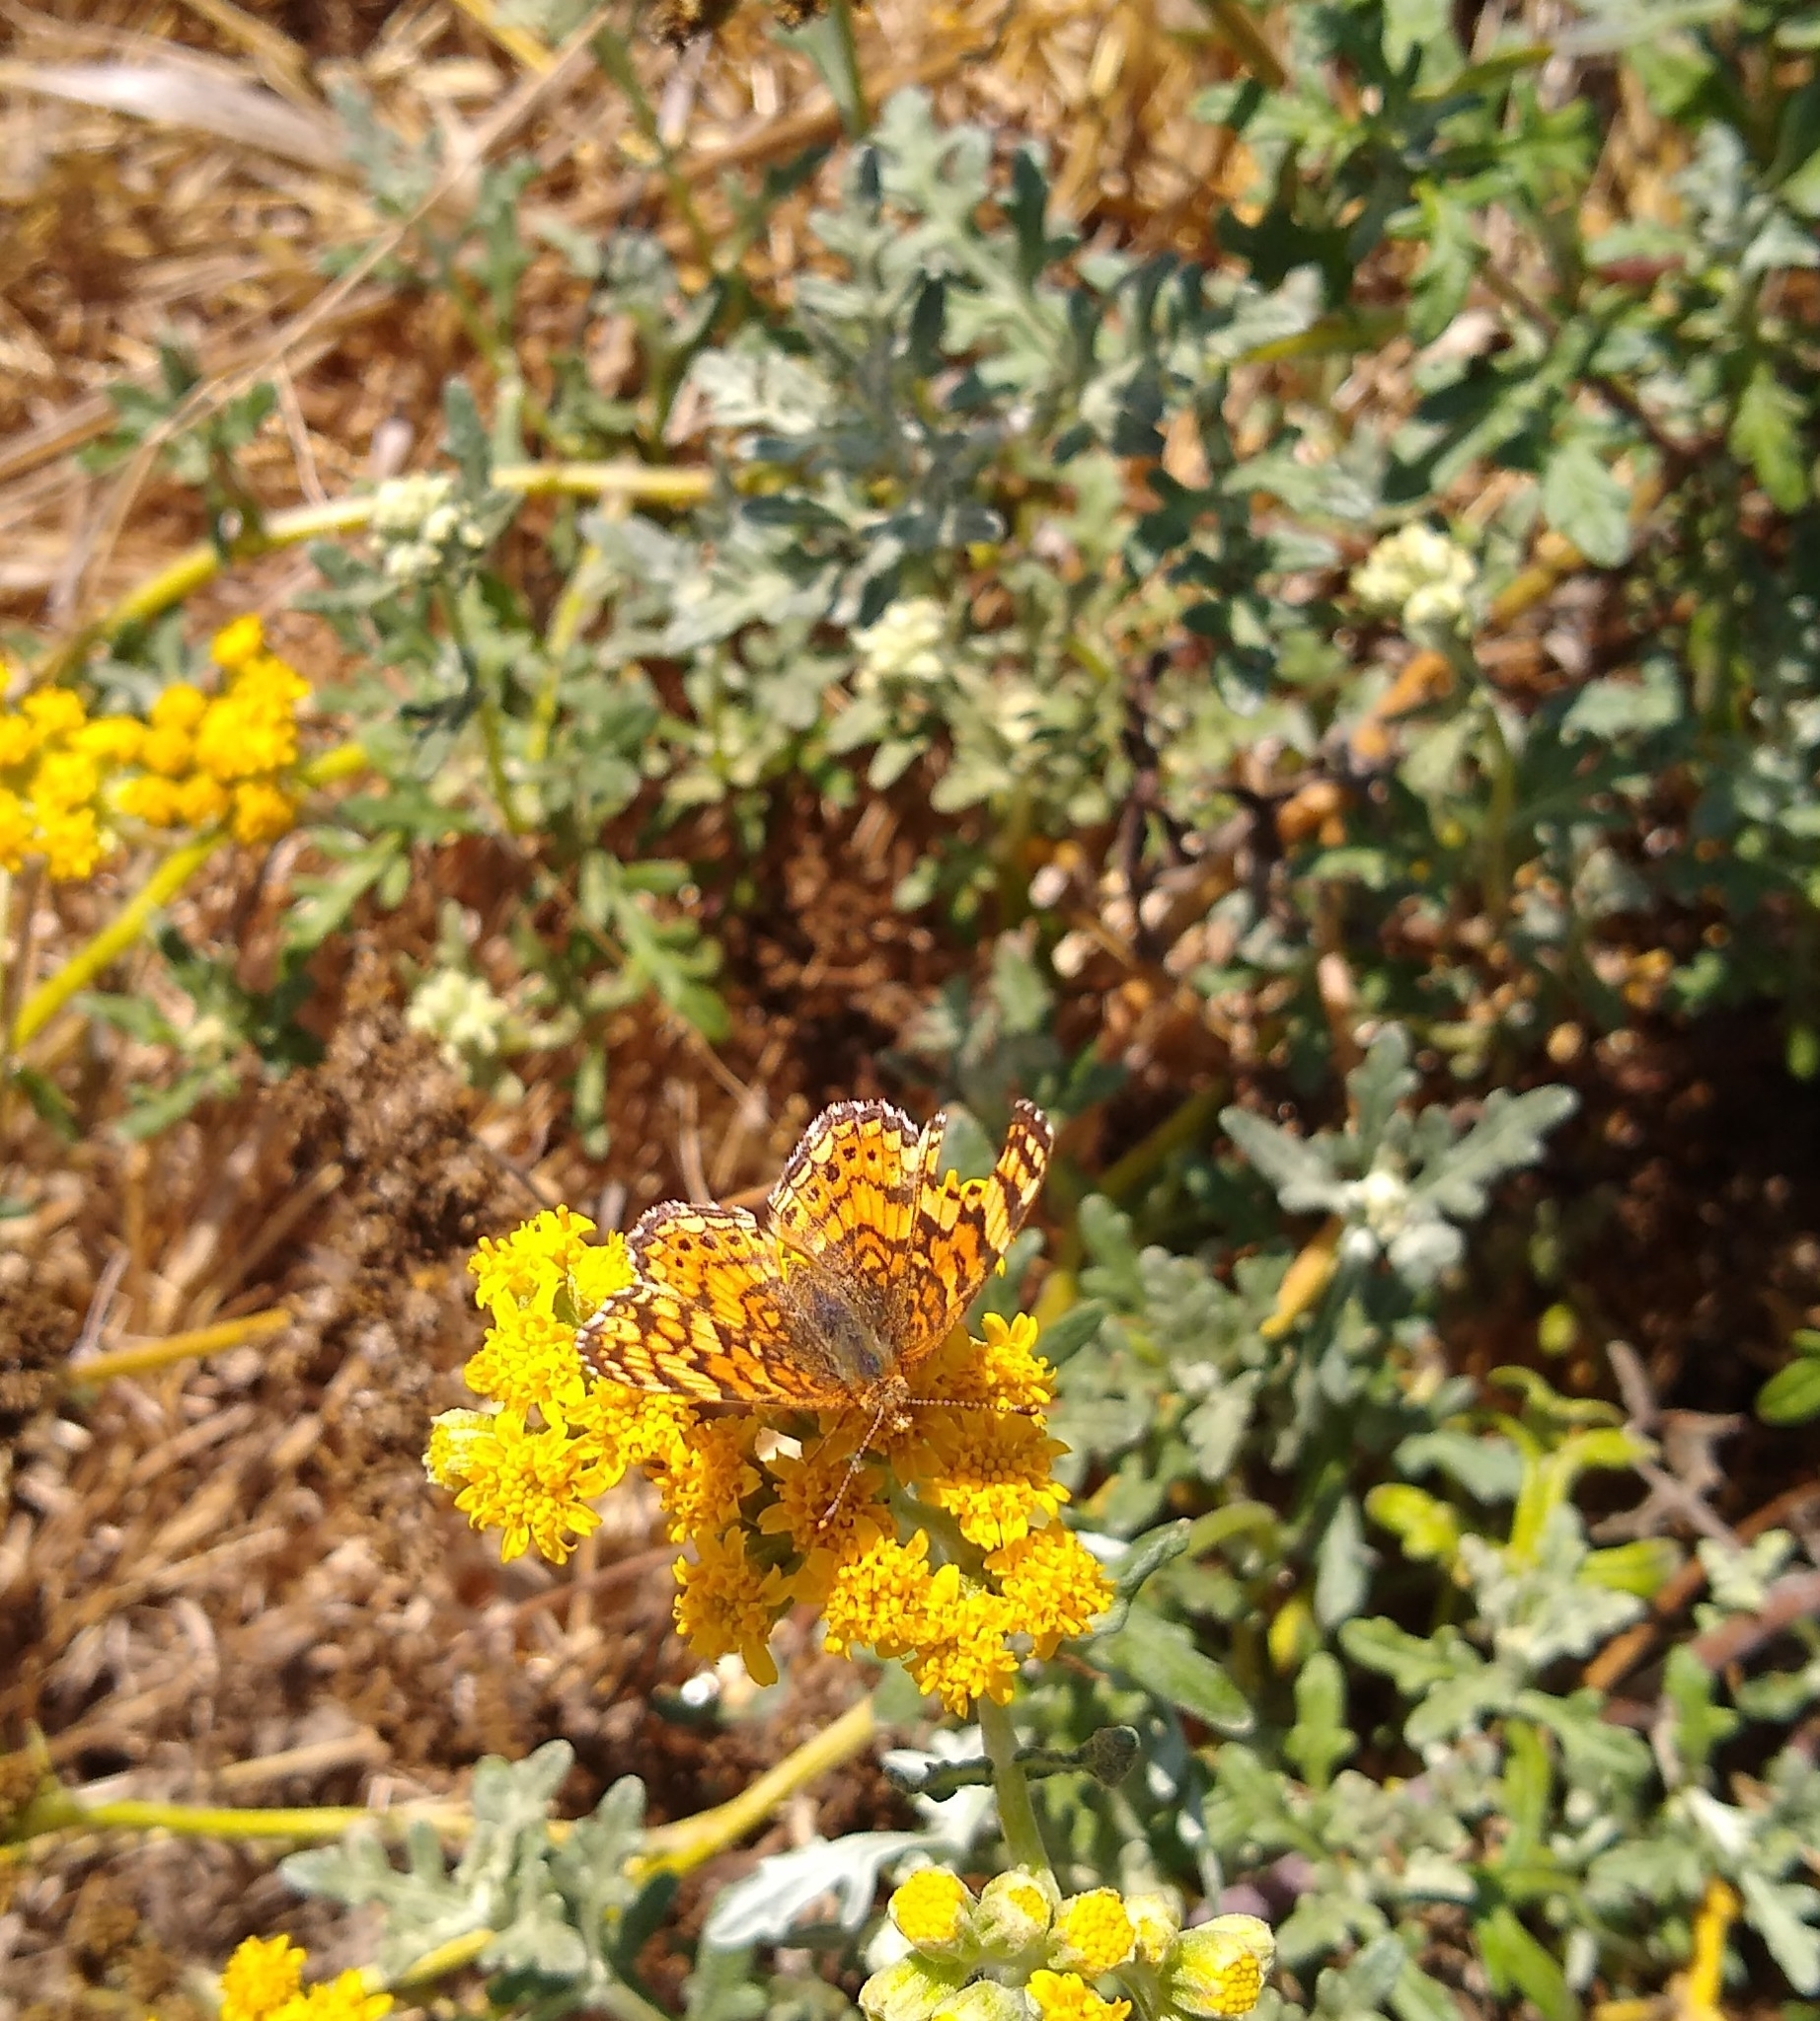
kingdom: Animalia
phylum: Arthropoda
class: Insecta
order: Lepidoptera
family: Nymphalidae
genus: Eresia
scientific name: Eresia aveyrona
